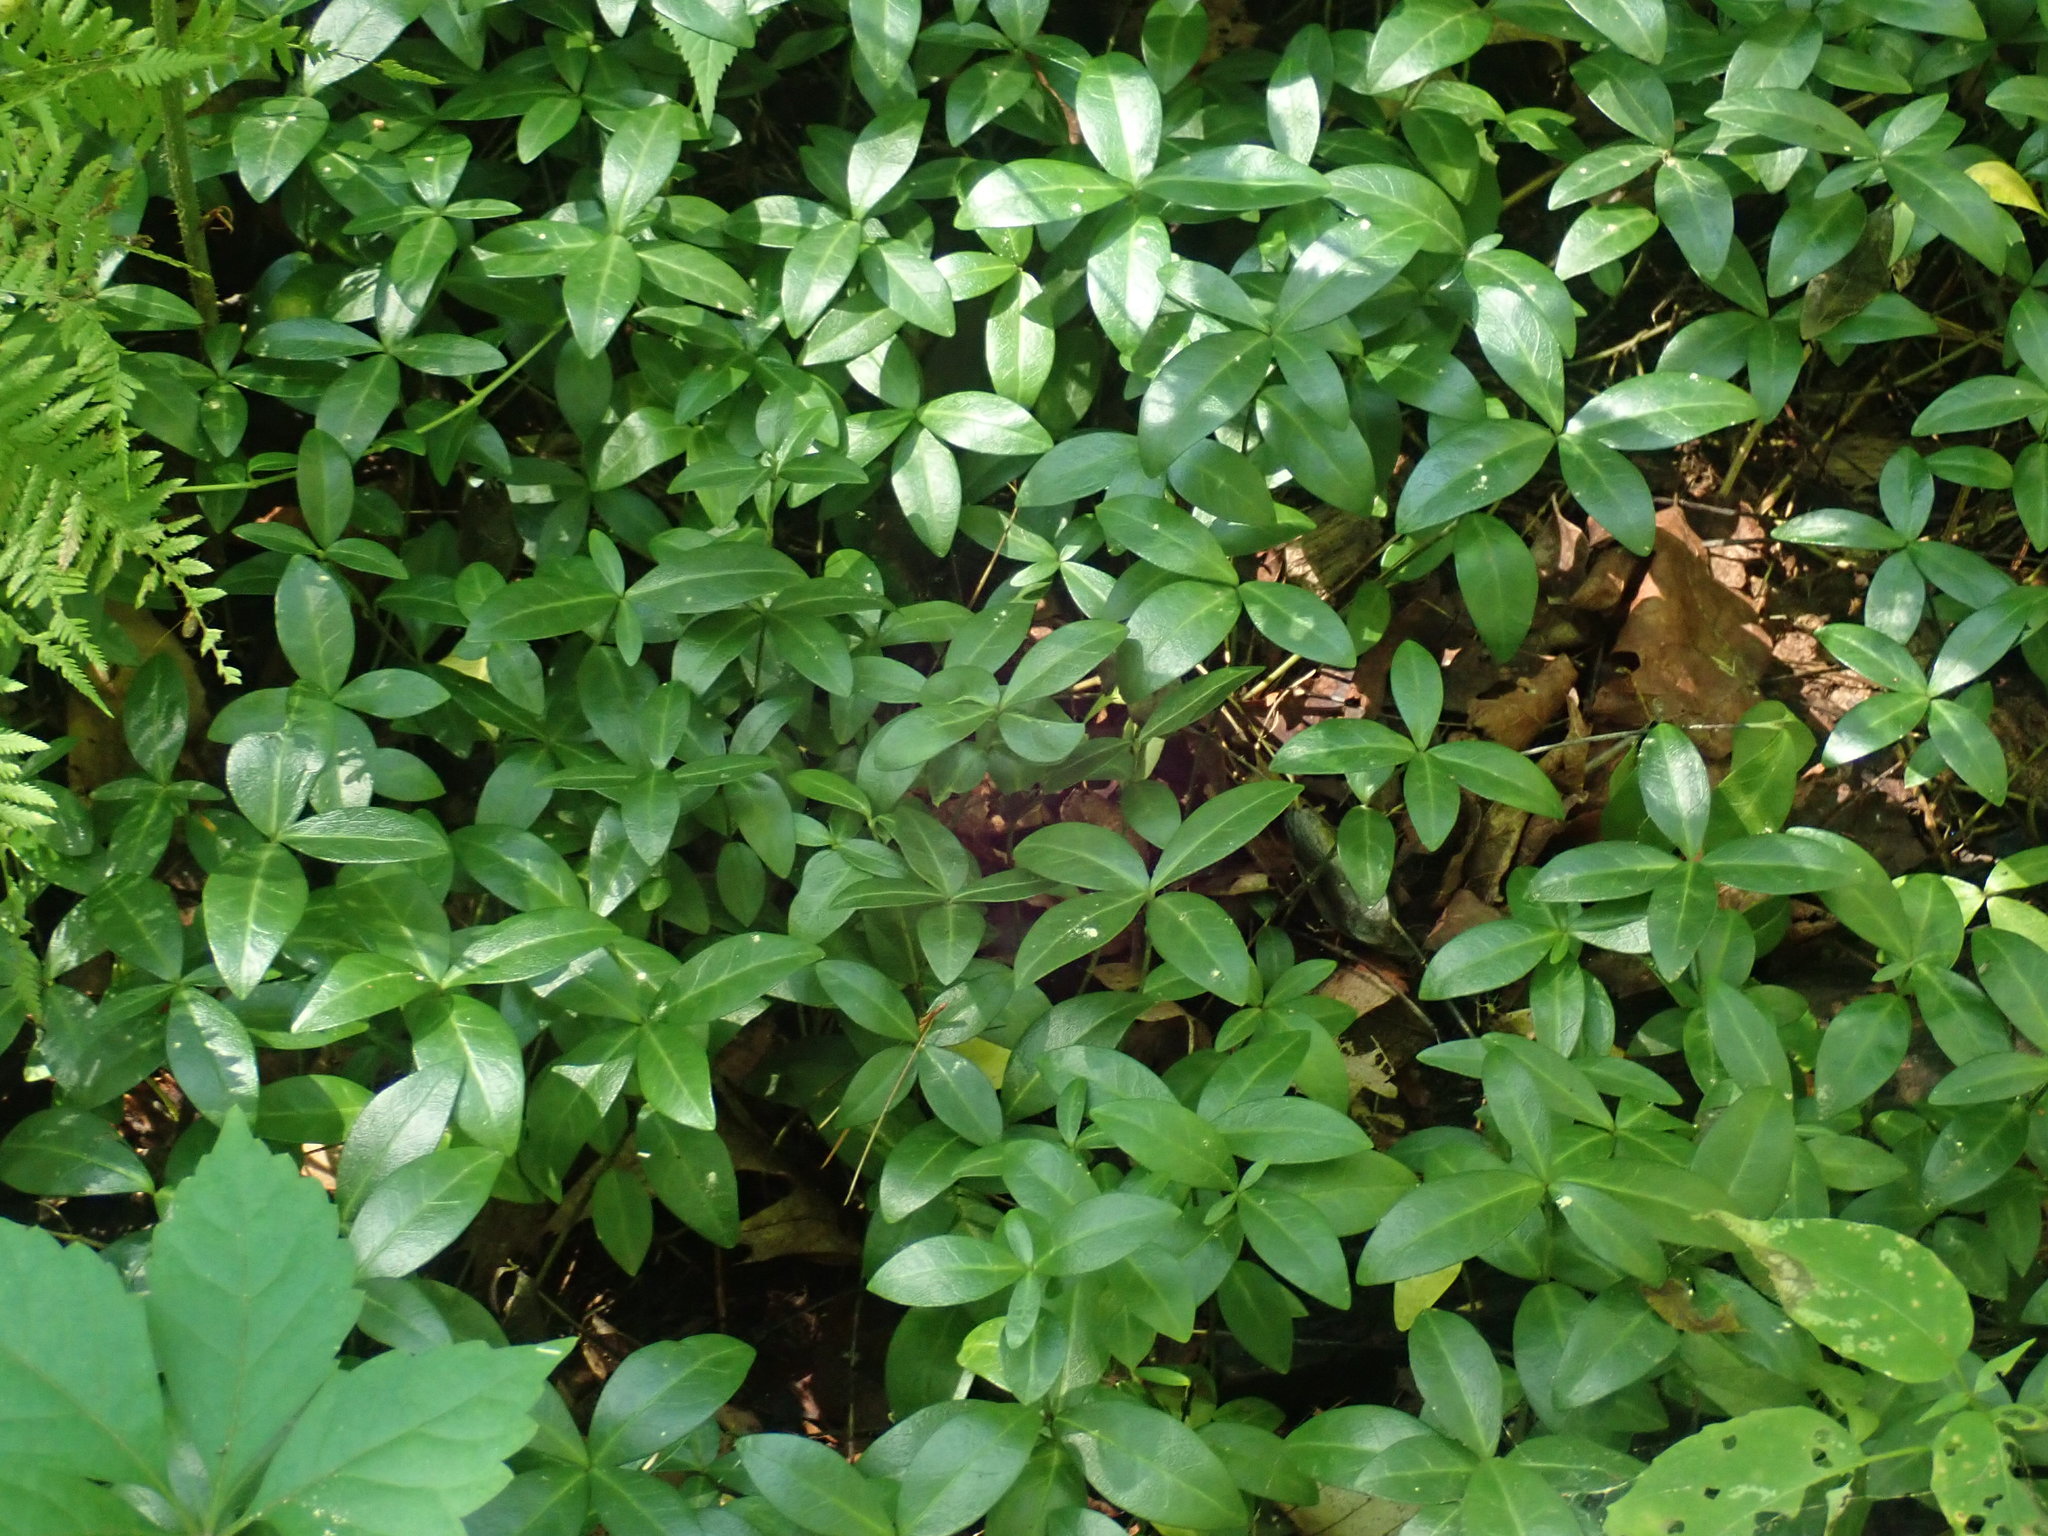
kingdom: Plantae
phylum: Tracheophyta
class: Magnoliopsida
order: Gentianales
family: Apocynaceae
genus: Vinca
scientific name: Vinca minor
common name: Lesser periwinkle
